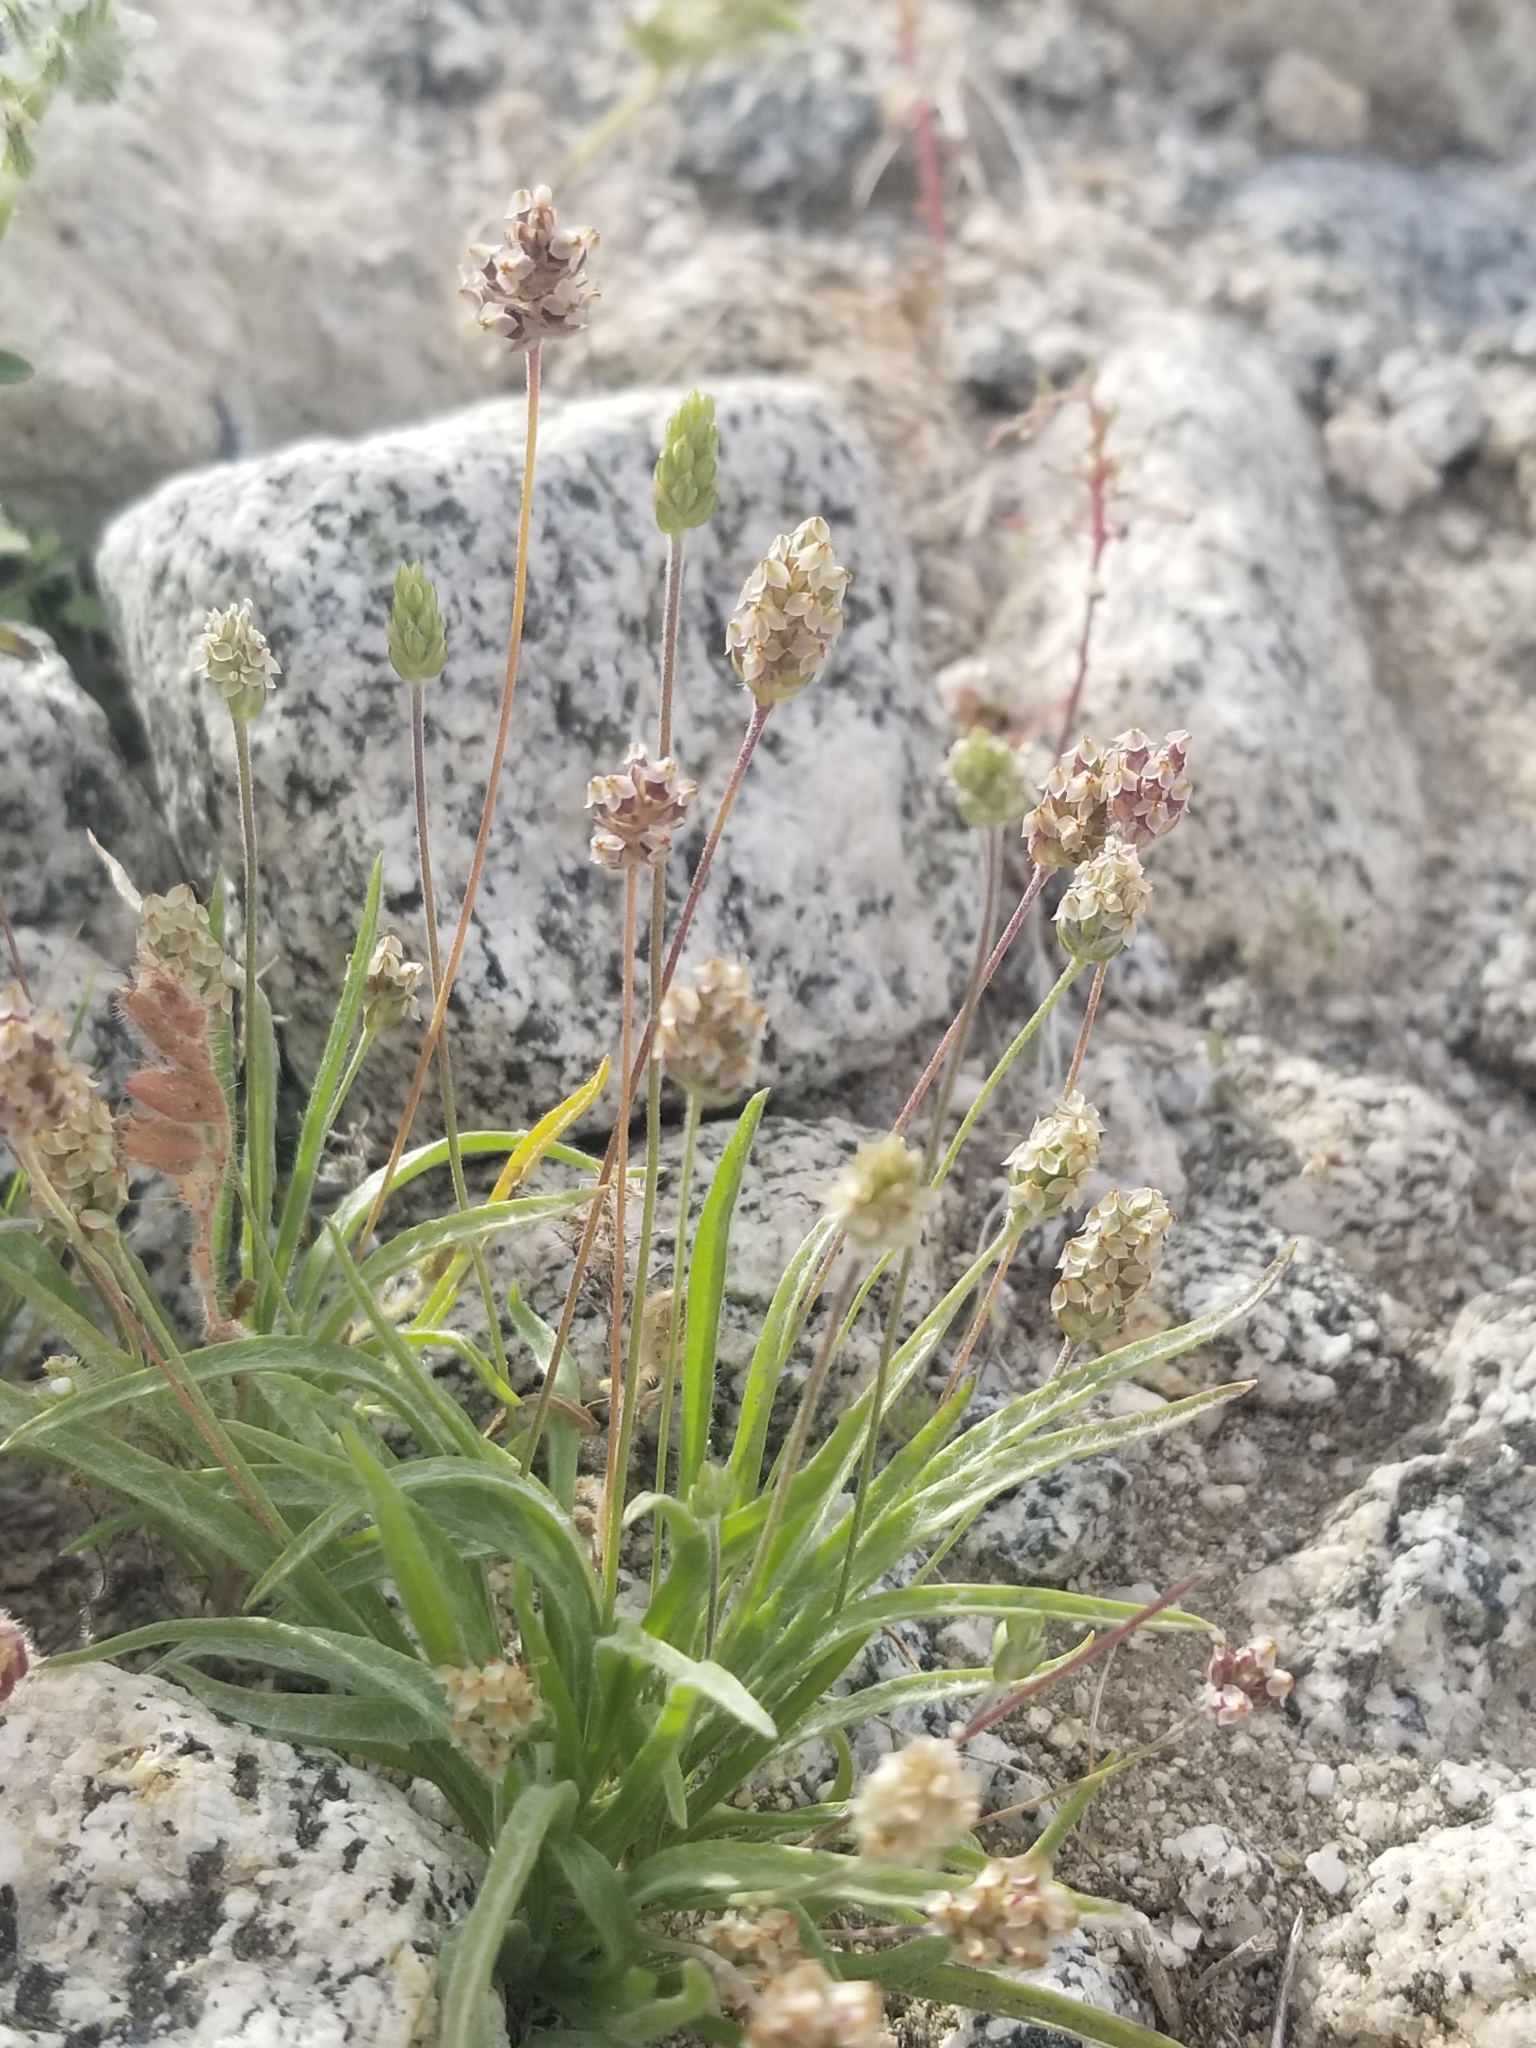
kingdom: Plantae
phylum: Tracheophyta
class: Magnoliopsida
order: Lamiales
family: Plantaginaceae
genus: Plantago
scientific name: Plantago ovata
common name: Blond plantain
